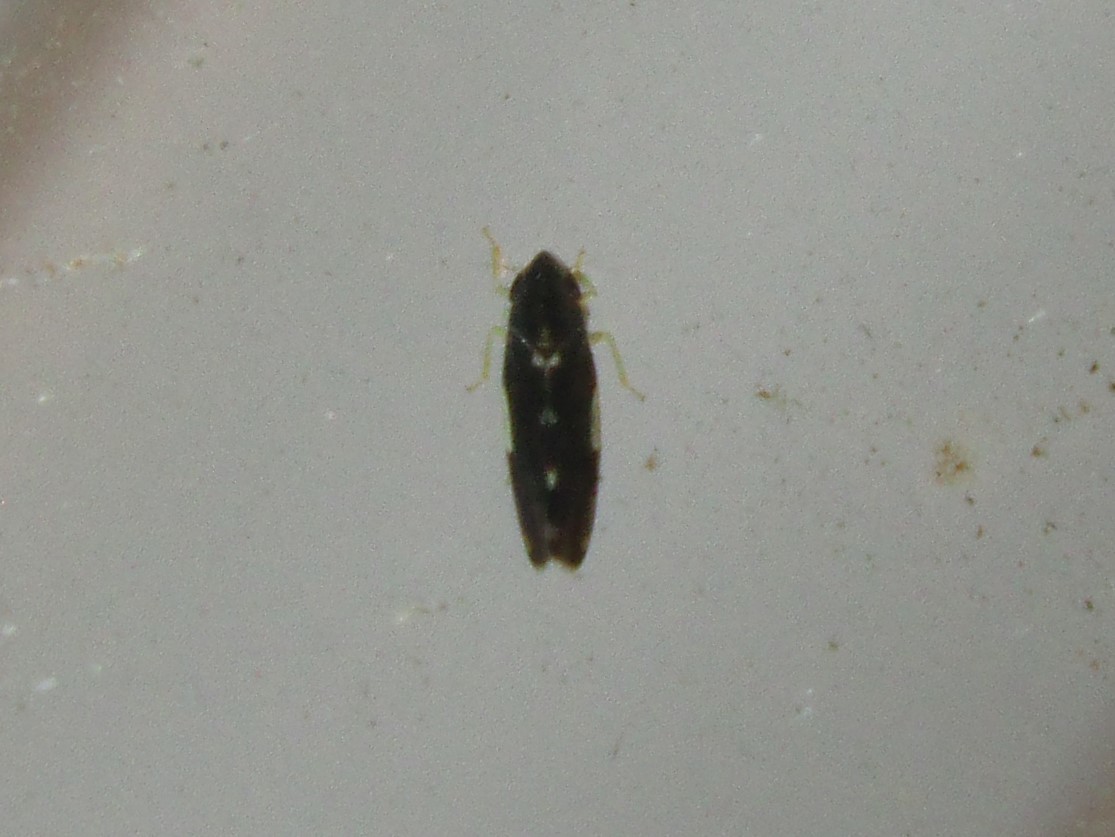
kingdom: Animalia
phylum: Arthropoda
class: Insecta
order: Hemiptera
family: Cicadellidae
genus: Erythroneura
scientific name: Erythroneura infuscata
